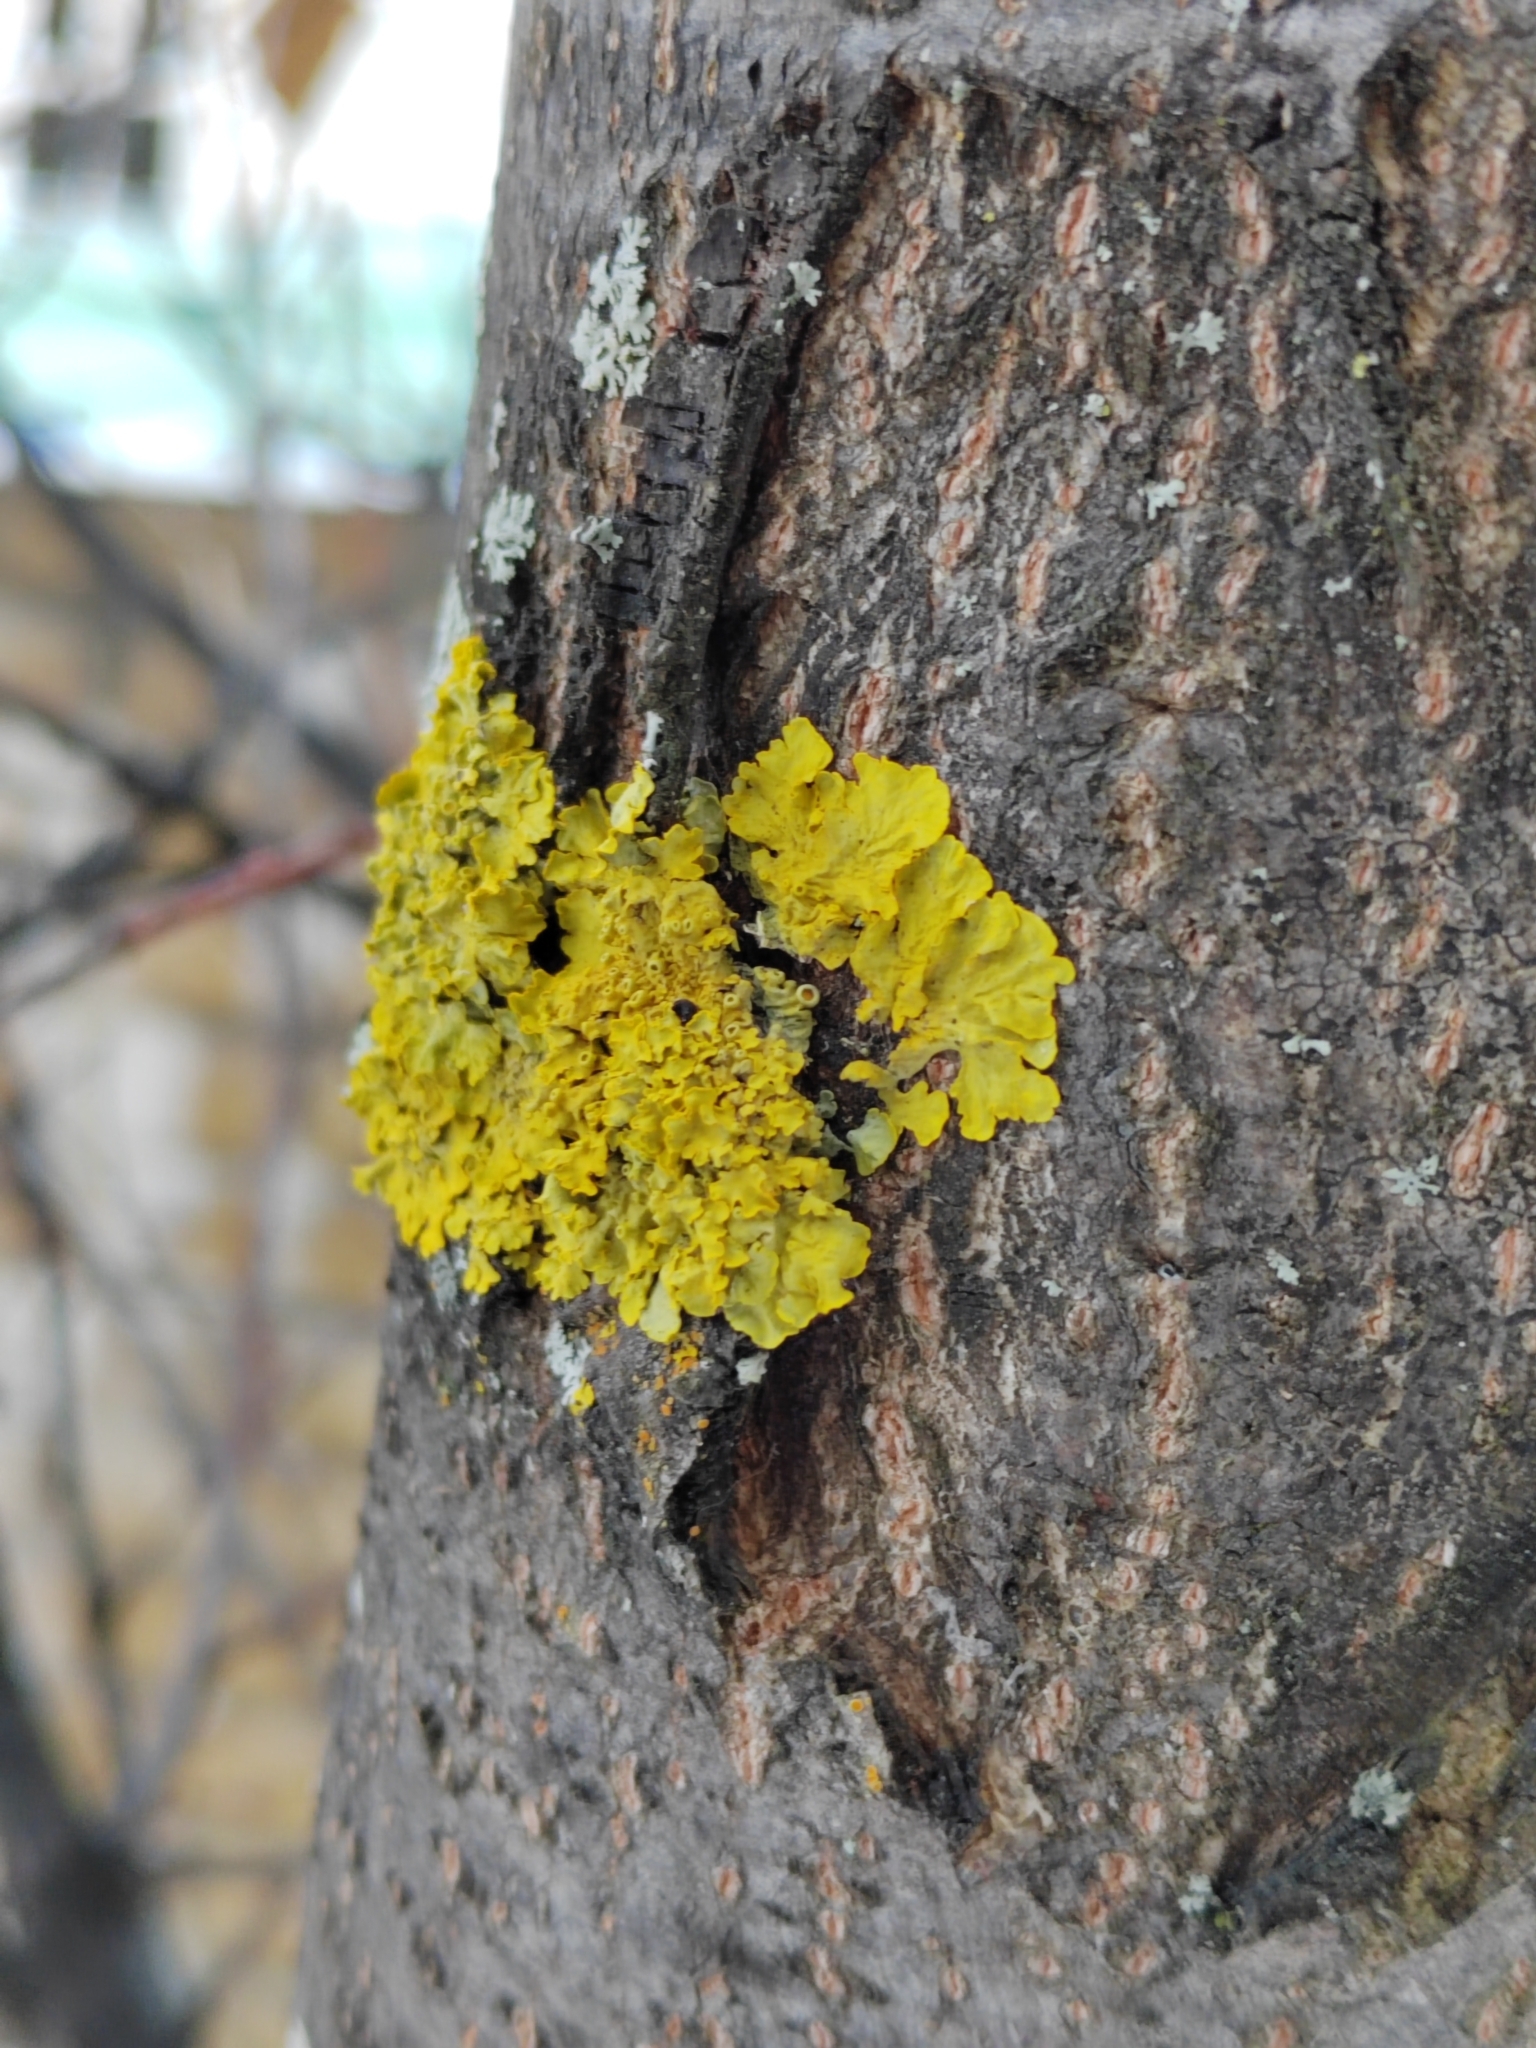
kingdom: Fungi
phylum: Ascomycota
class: Lecanoromycetes
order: Teloschistales
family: Teloschistaceae
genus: Xanthoria
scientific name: Xanthoria parietina
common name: Common orange lichen
